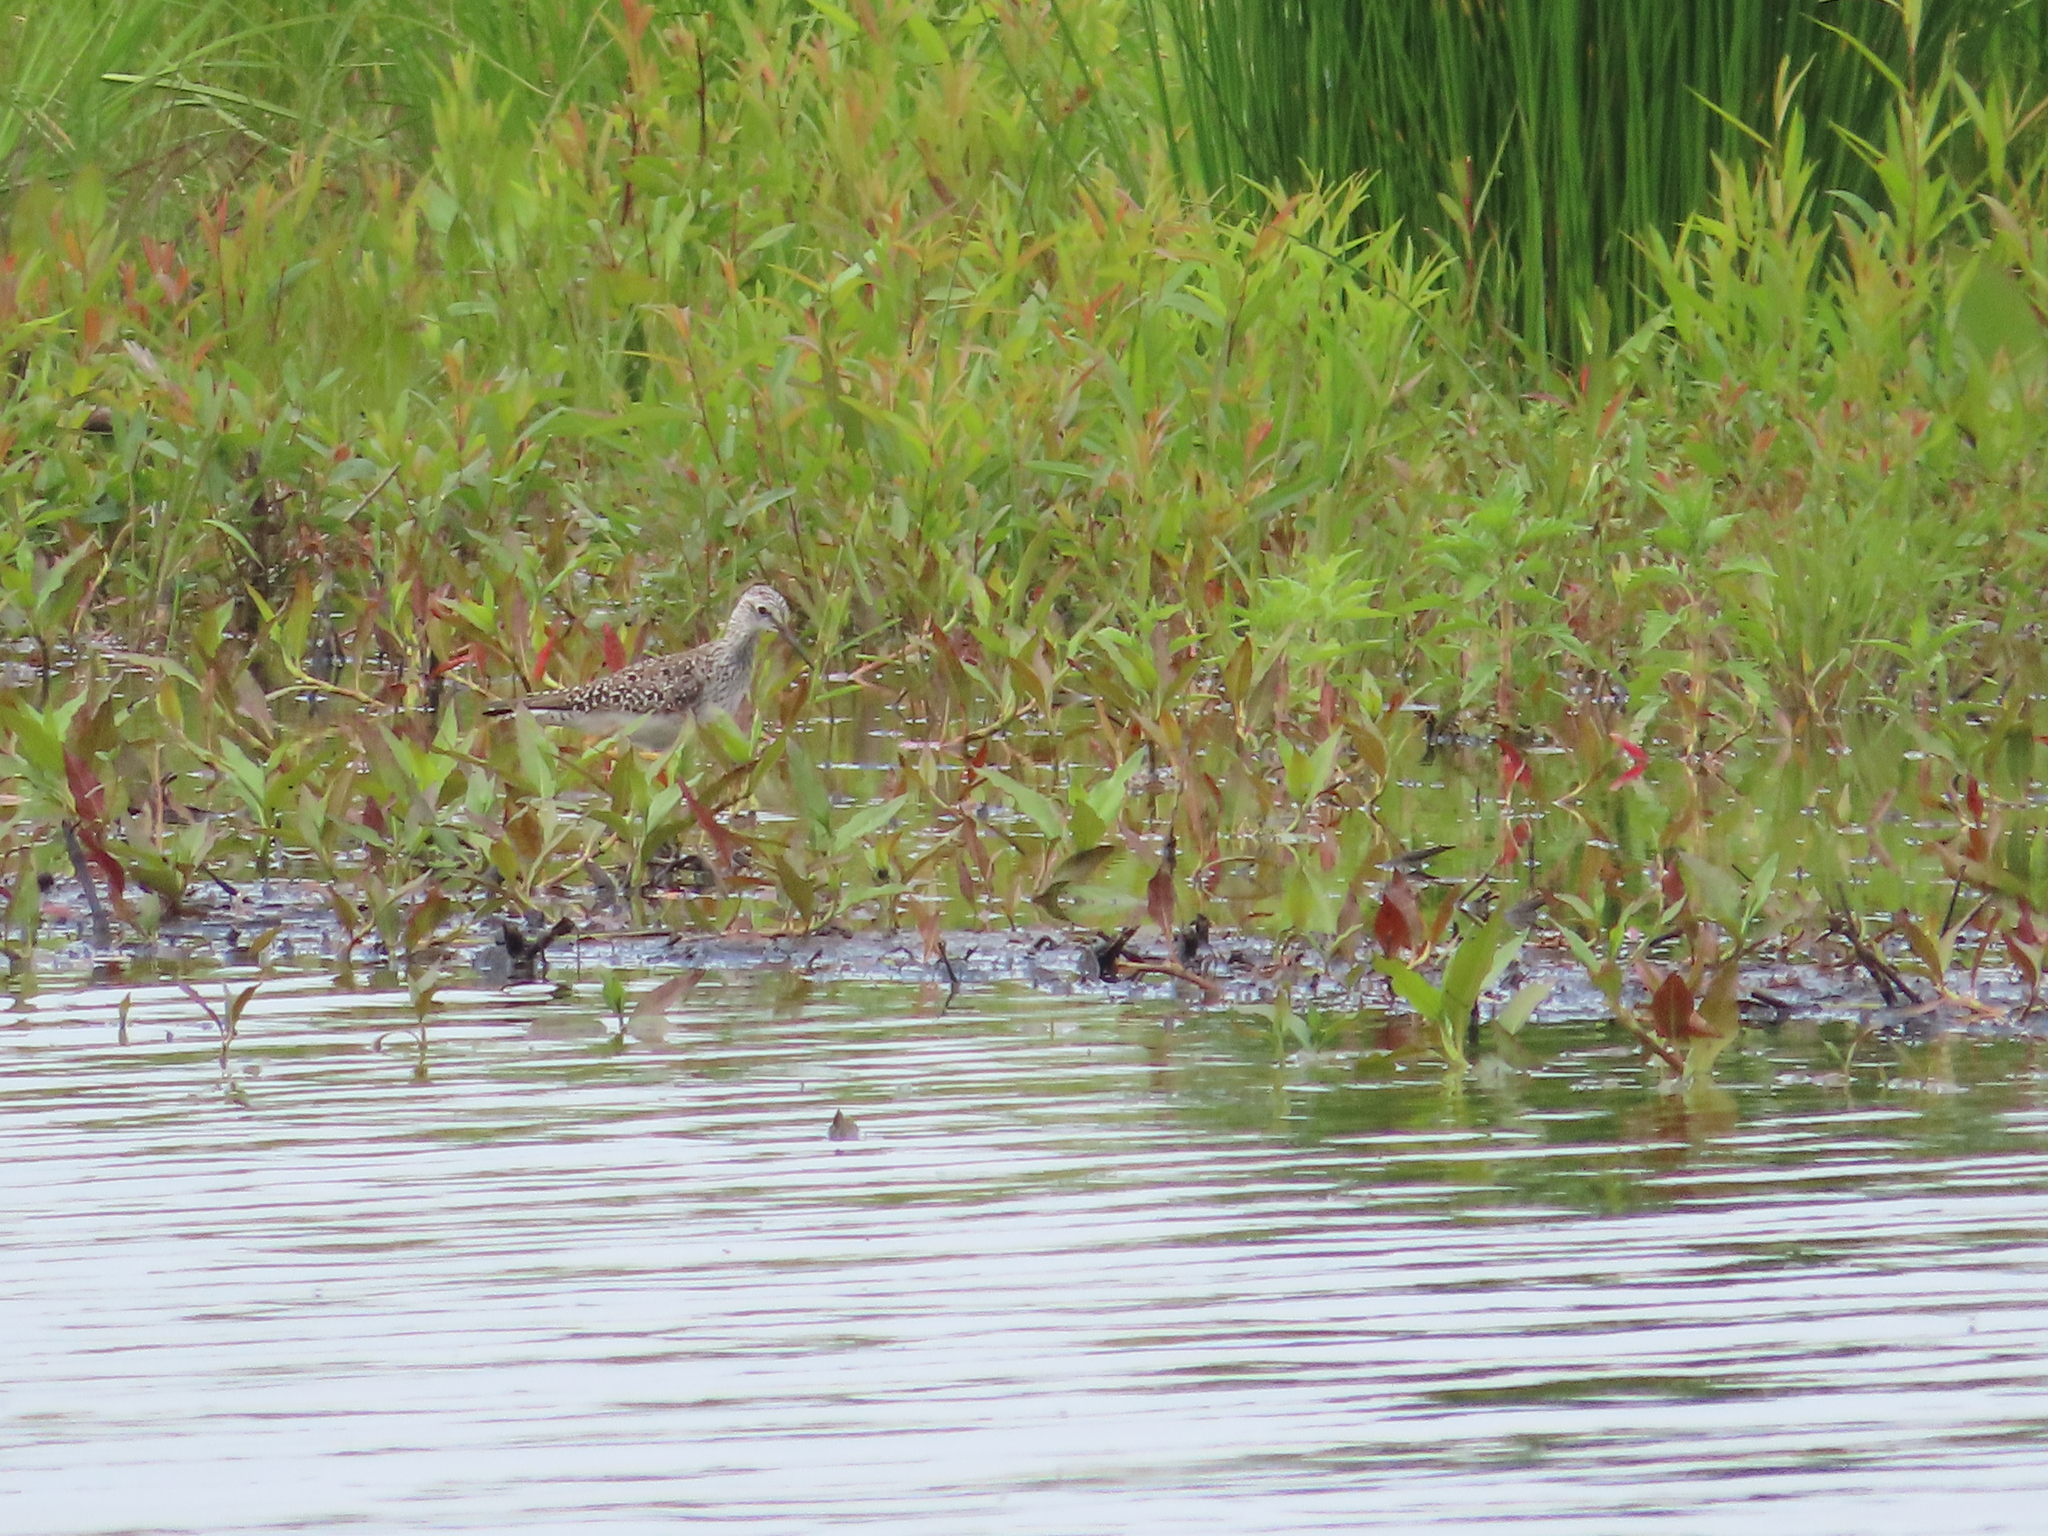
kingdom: Animalia
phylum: Chordata
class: Aves
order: Charadriiformes
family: Scolopacidae
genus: Tringa
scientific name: Tringa flavipes
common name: Lesser yellowlegs
